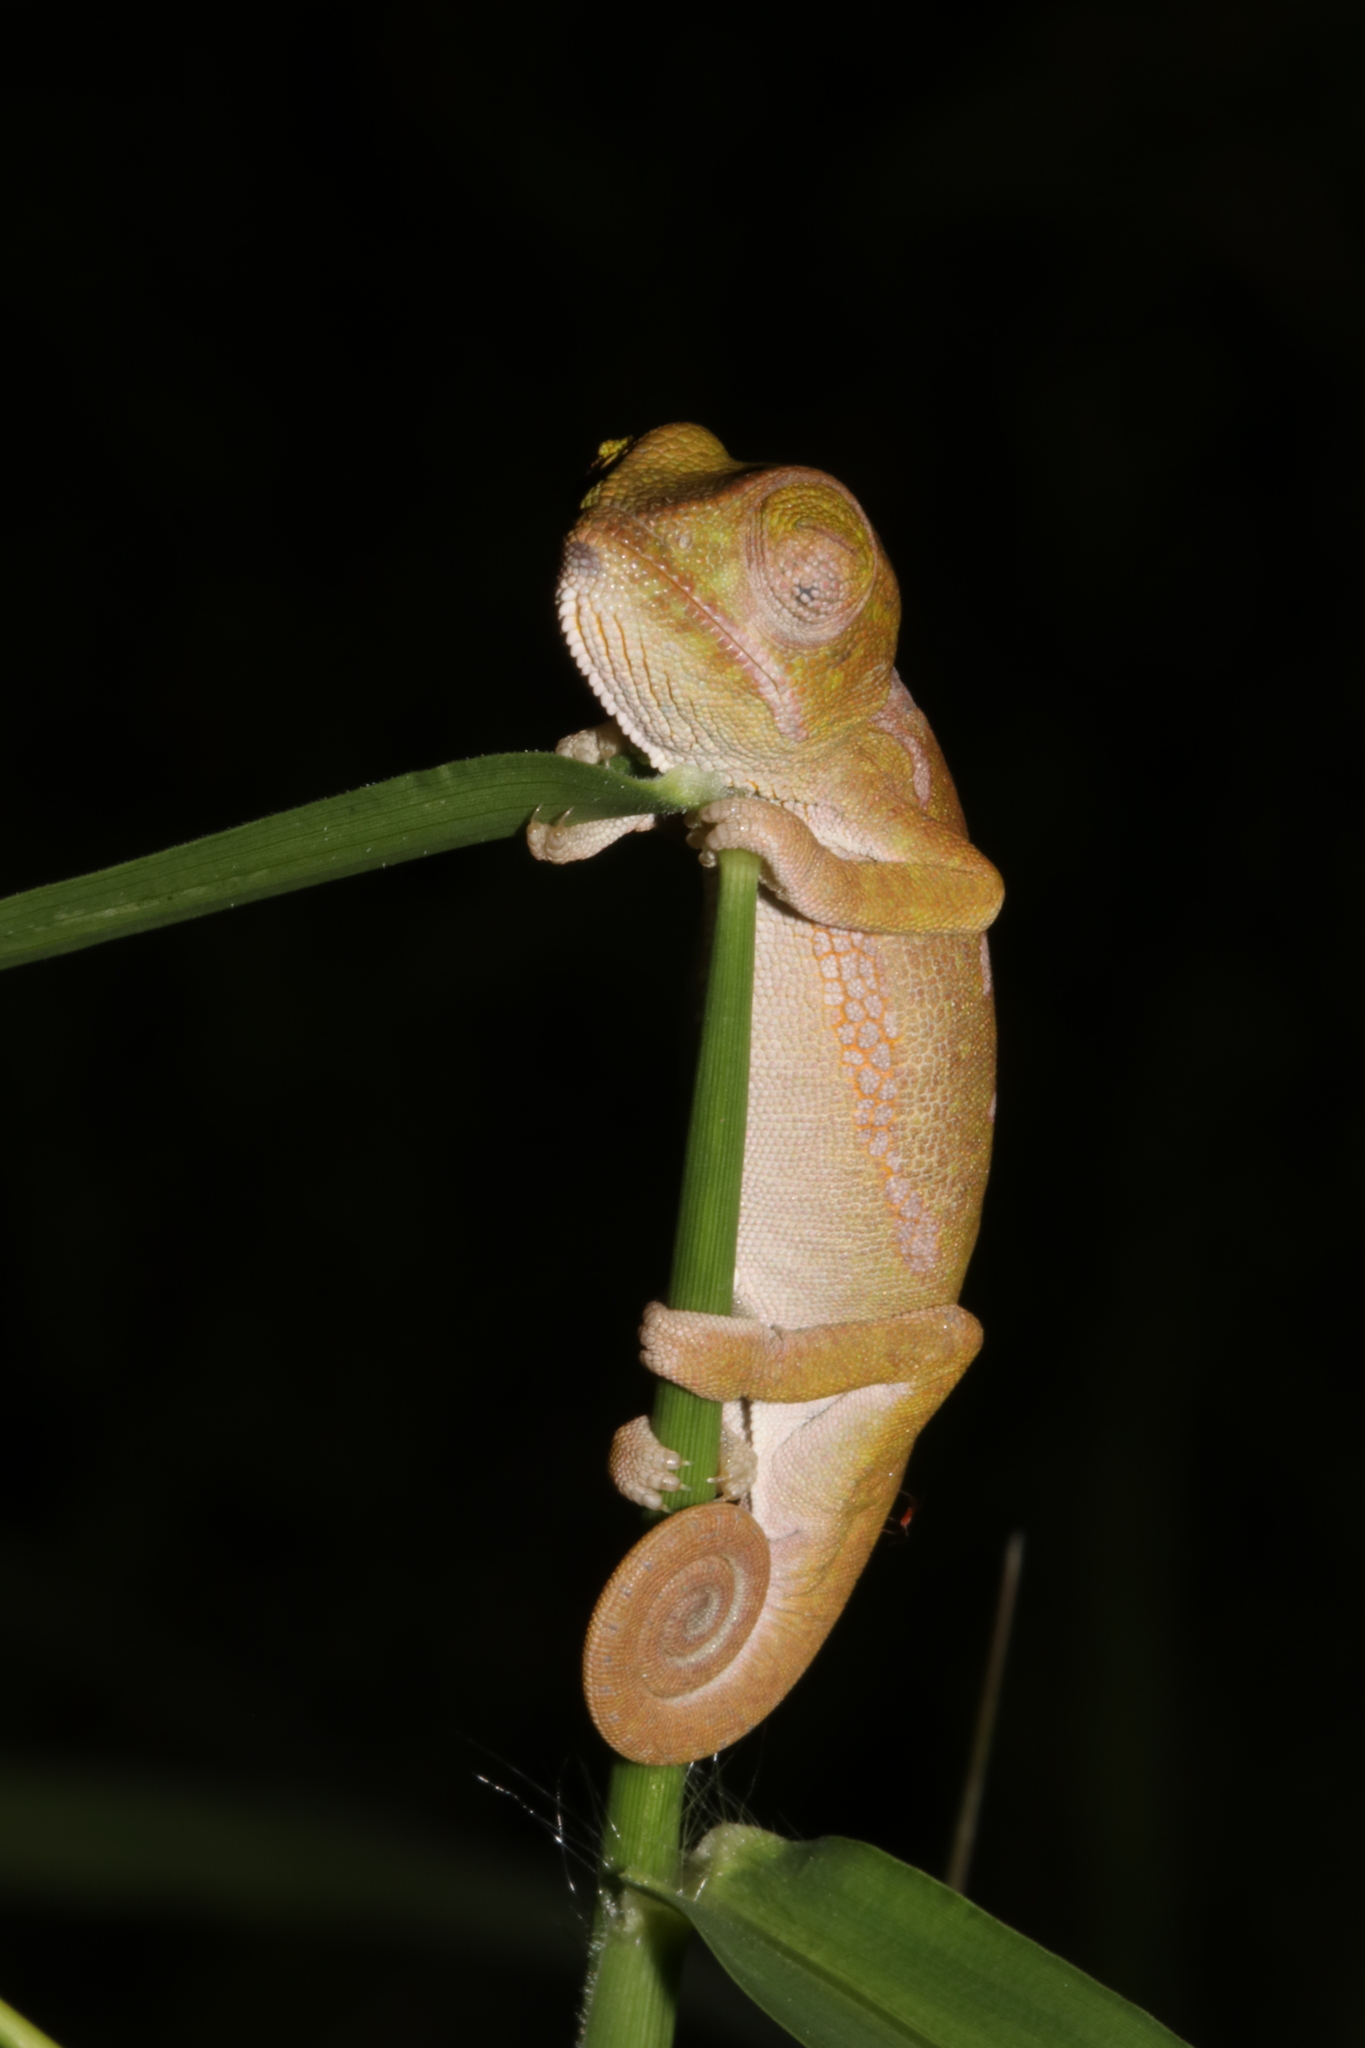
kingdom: Animalia
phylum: Chordata
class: Squamata
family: Chamaeleonidae
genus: Chamaeleo
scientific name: Chamaeleo dilepis
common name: Flapneck chameleon
